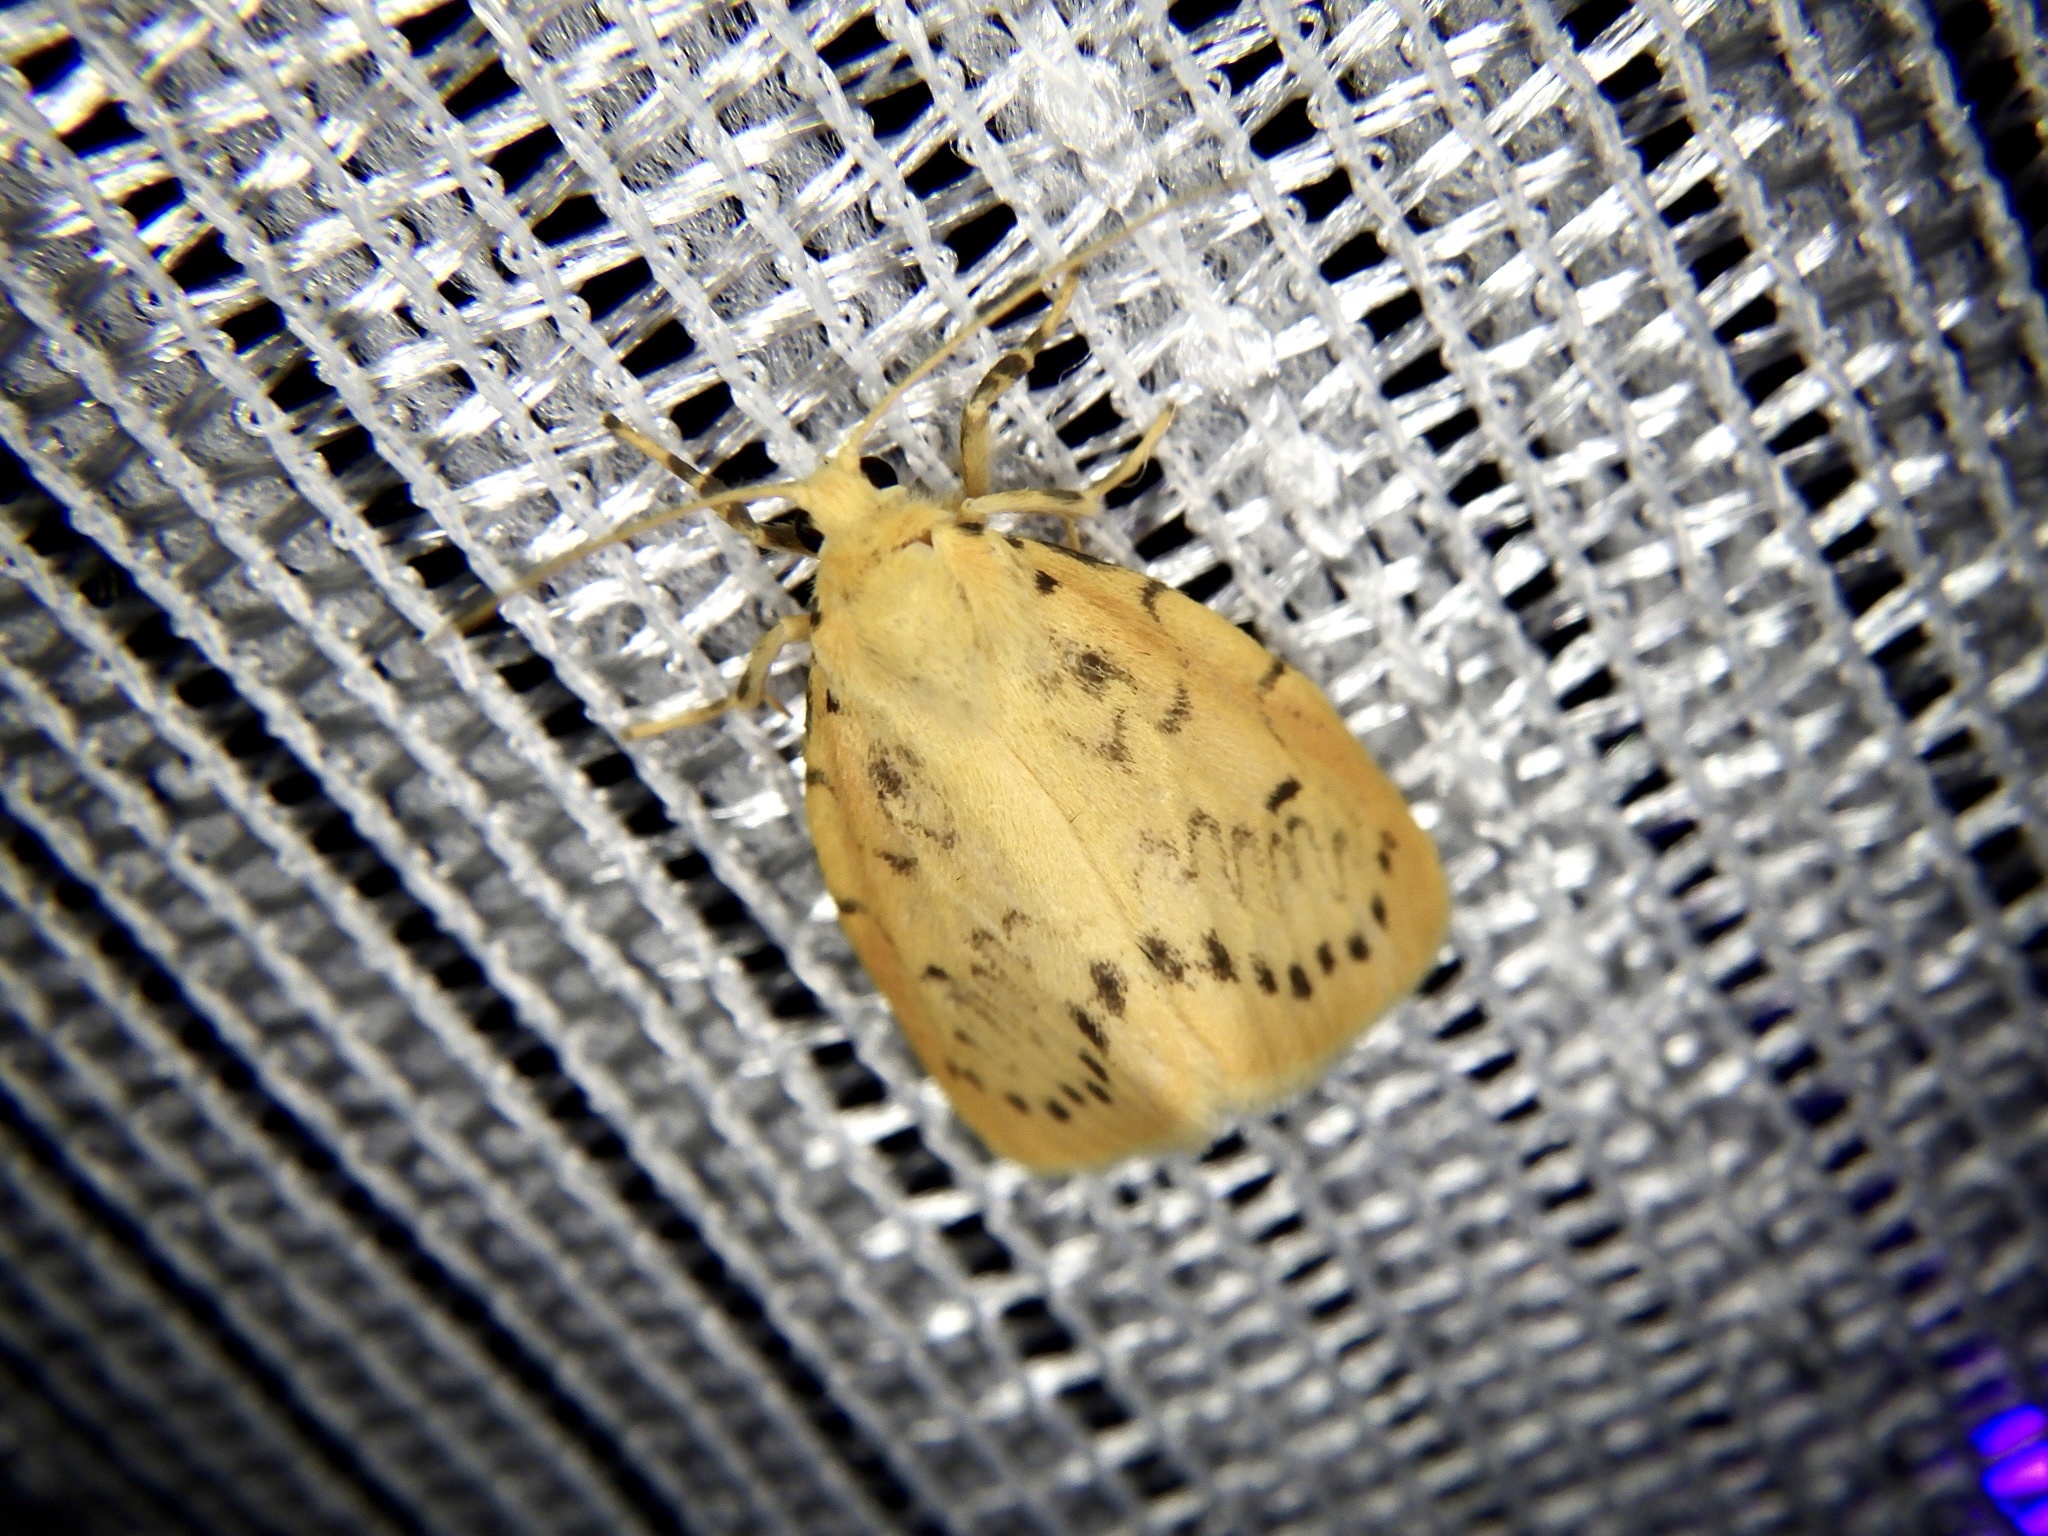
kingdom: Animalia
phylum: Arthropoda
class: Insecta
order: Lepidoptera
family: Erebidae
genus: Miltochrista
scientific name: Miltochrista miniata
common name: Rosy footman
